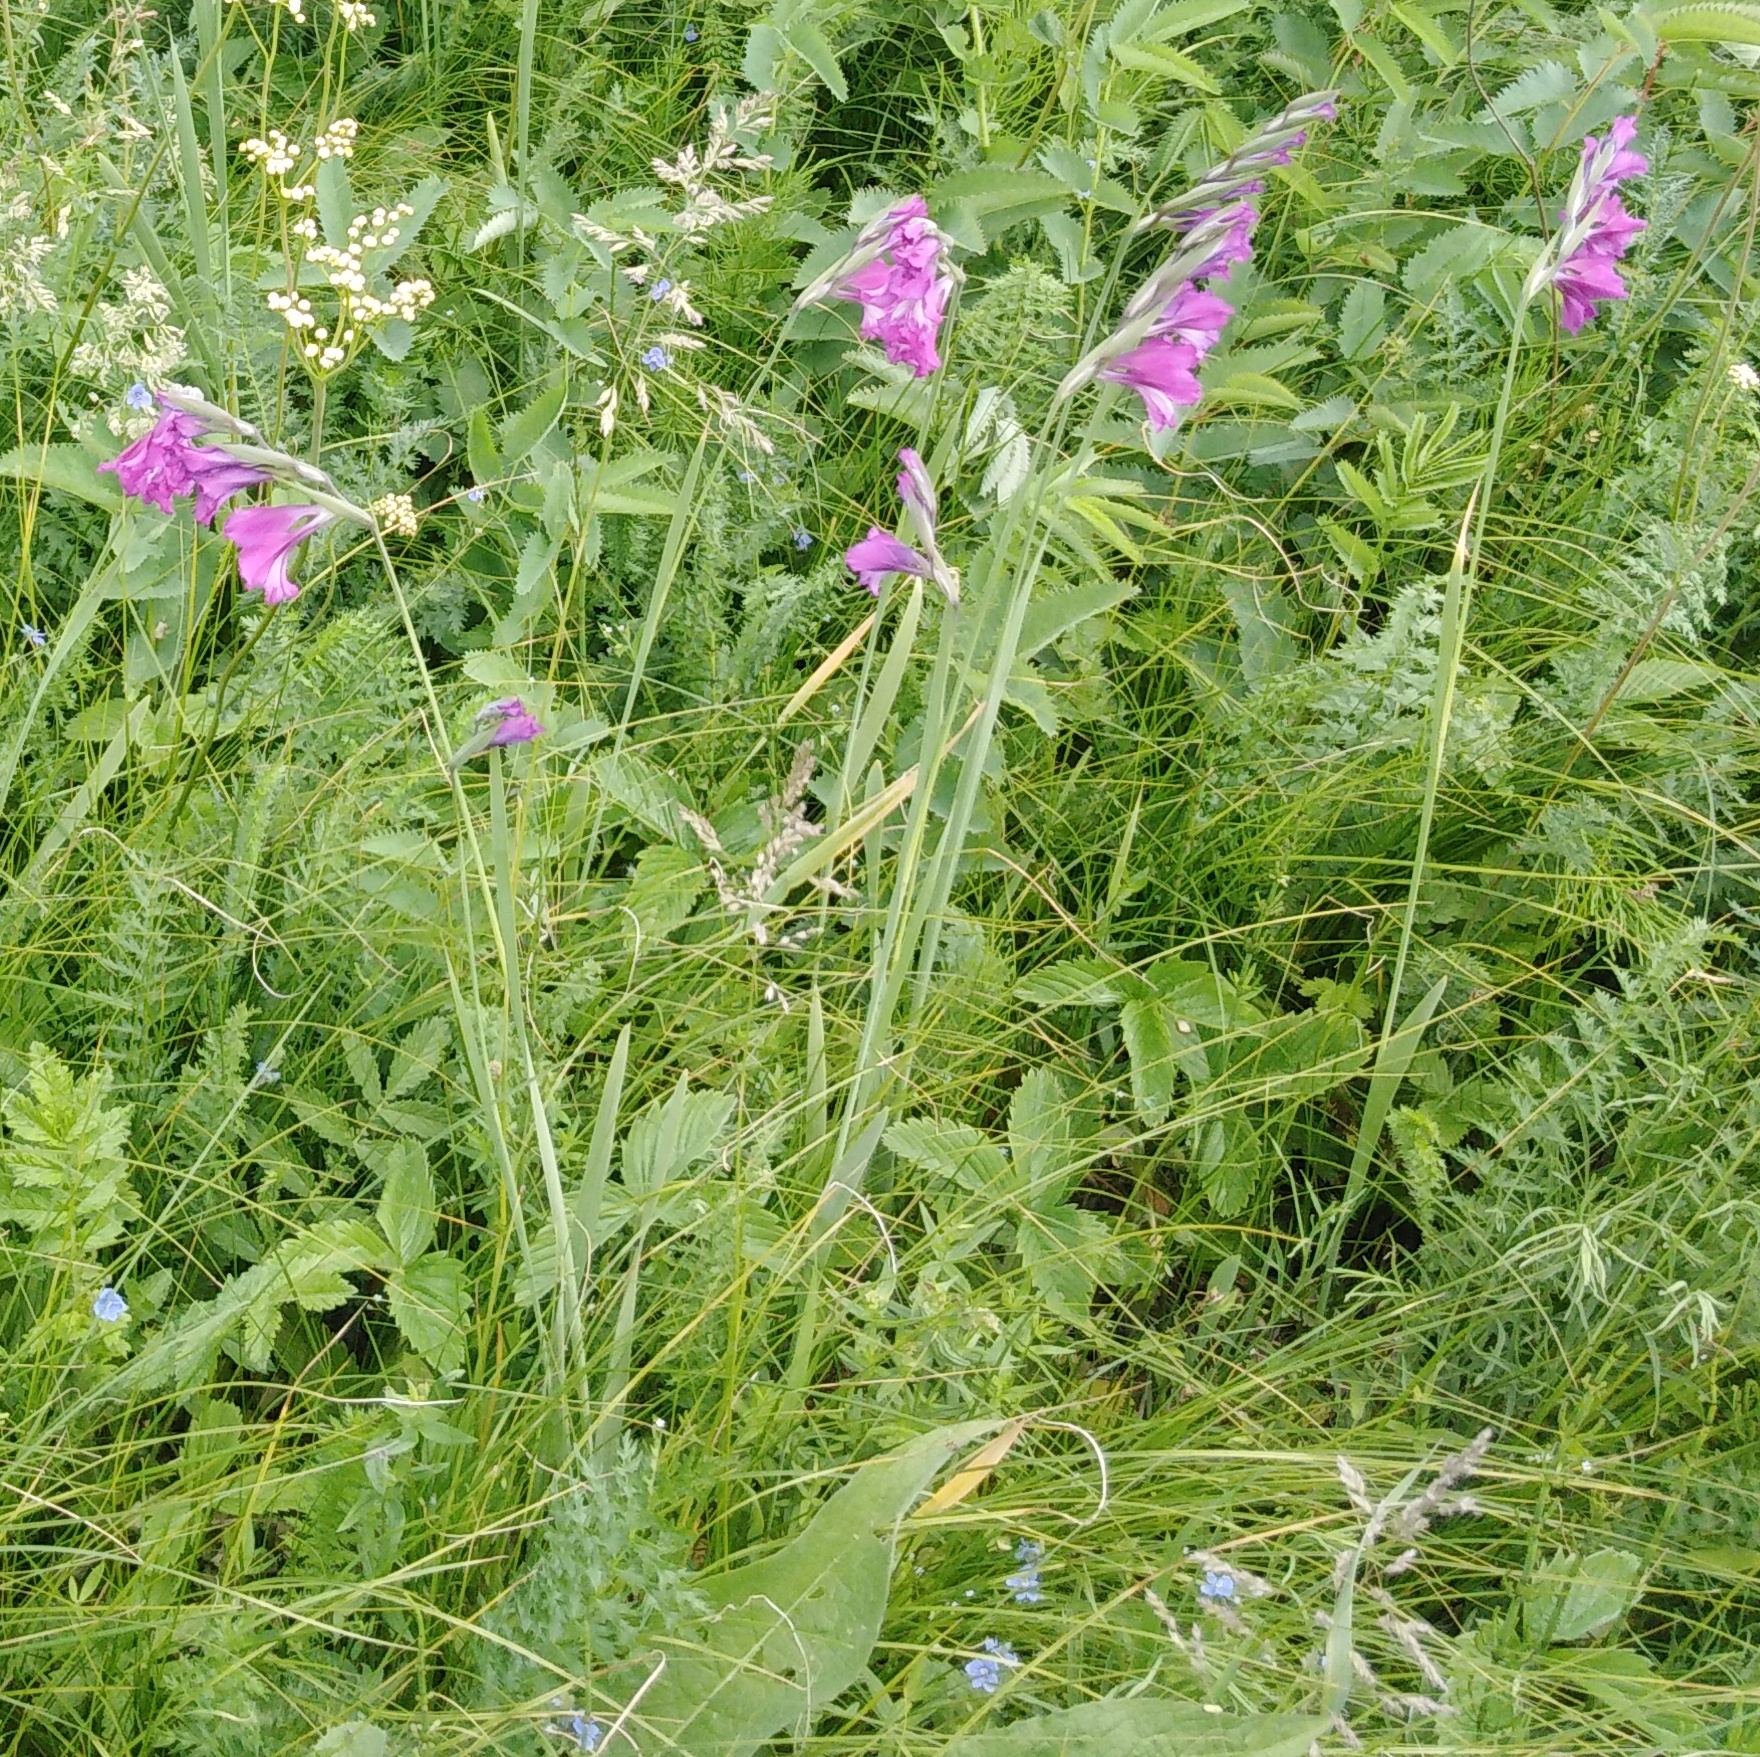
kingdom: Plantae
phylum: Tracheophyta
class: Liliopsida
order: Asparagales
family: Iridaceae
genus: Gladiolus
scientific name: Gladiolus tenuis
